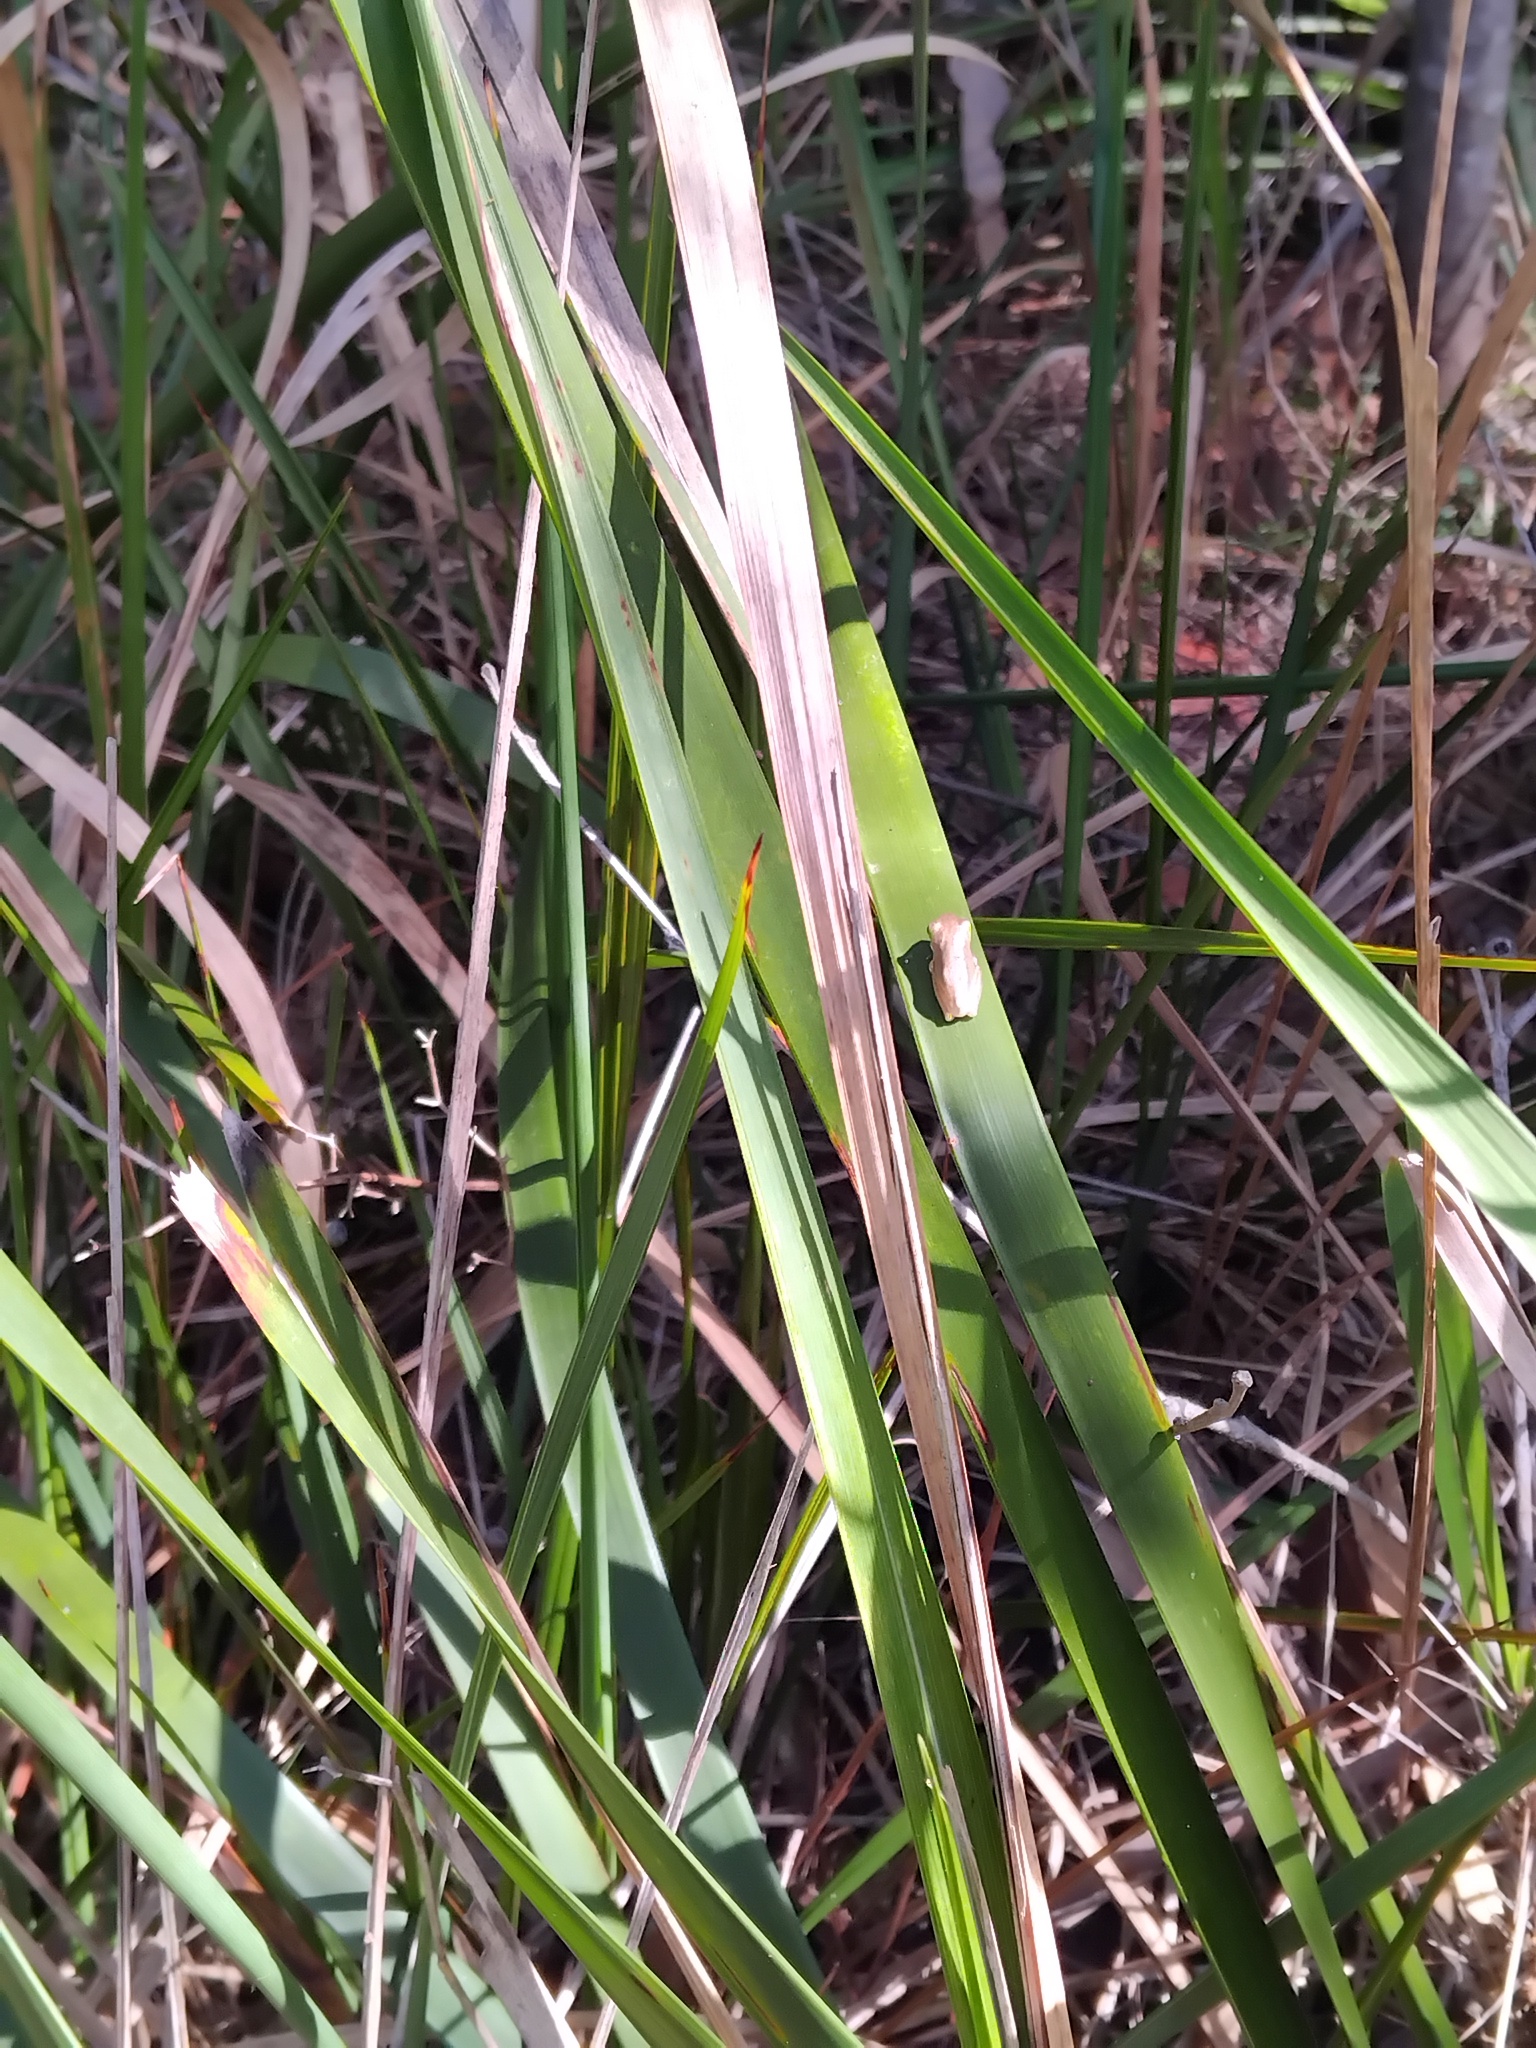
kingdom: Animalia
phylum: Chordata
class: Amphibia
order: Anura
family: Pelodryadidae
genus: Litoria
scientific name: Litoria fallax
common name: Eastern dwarf treefrog
